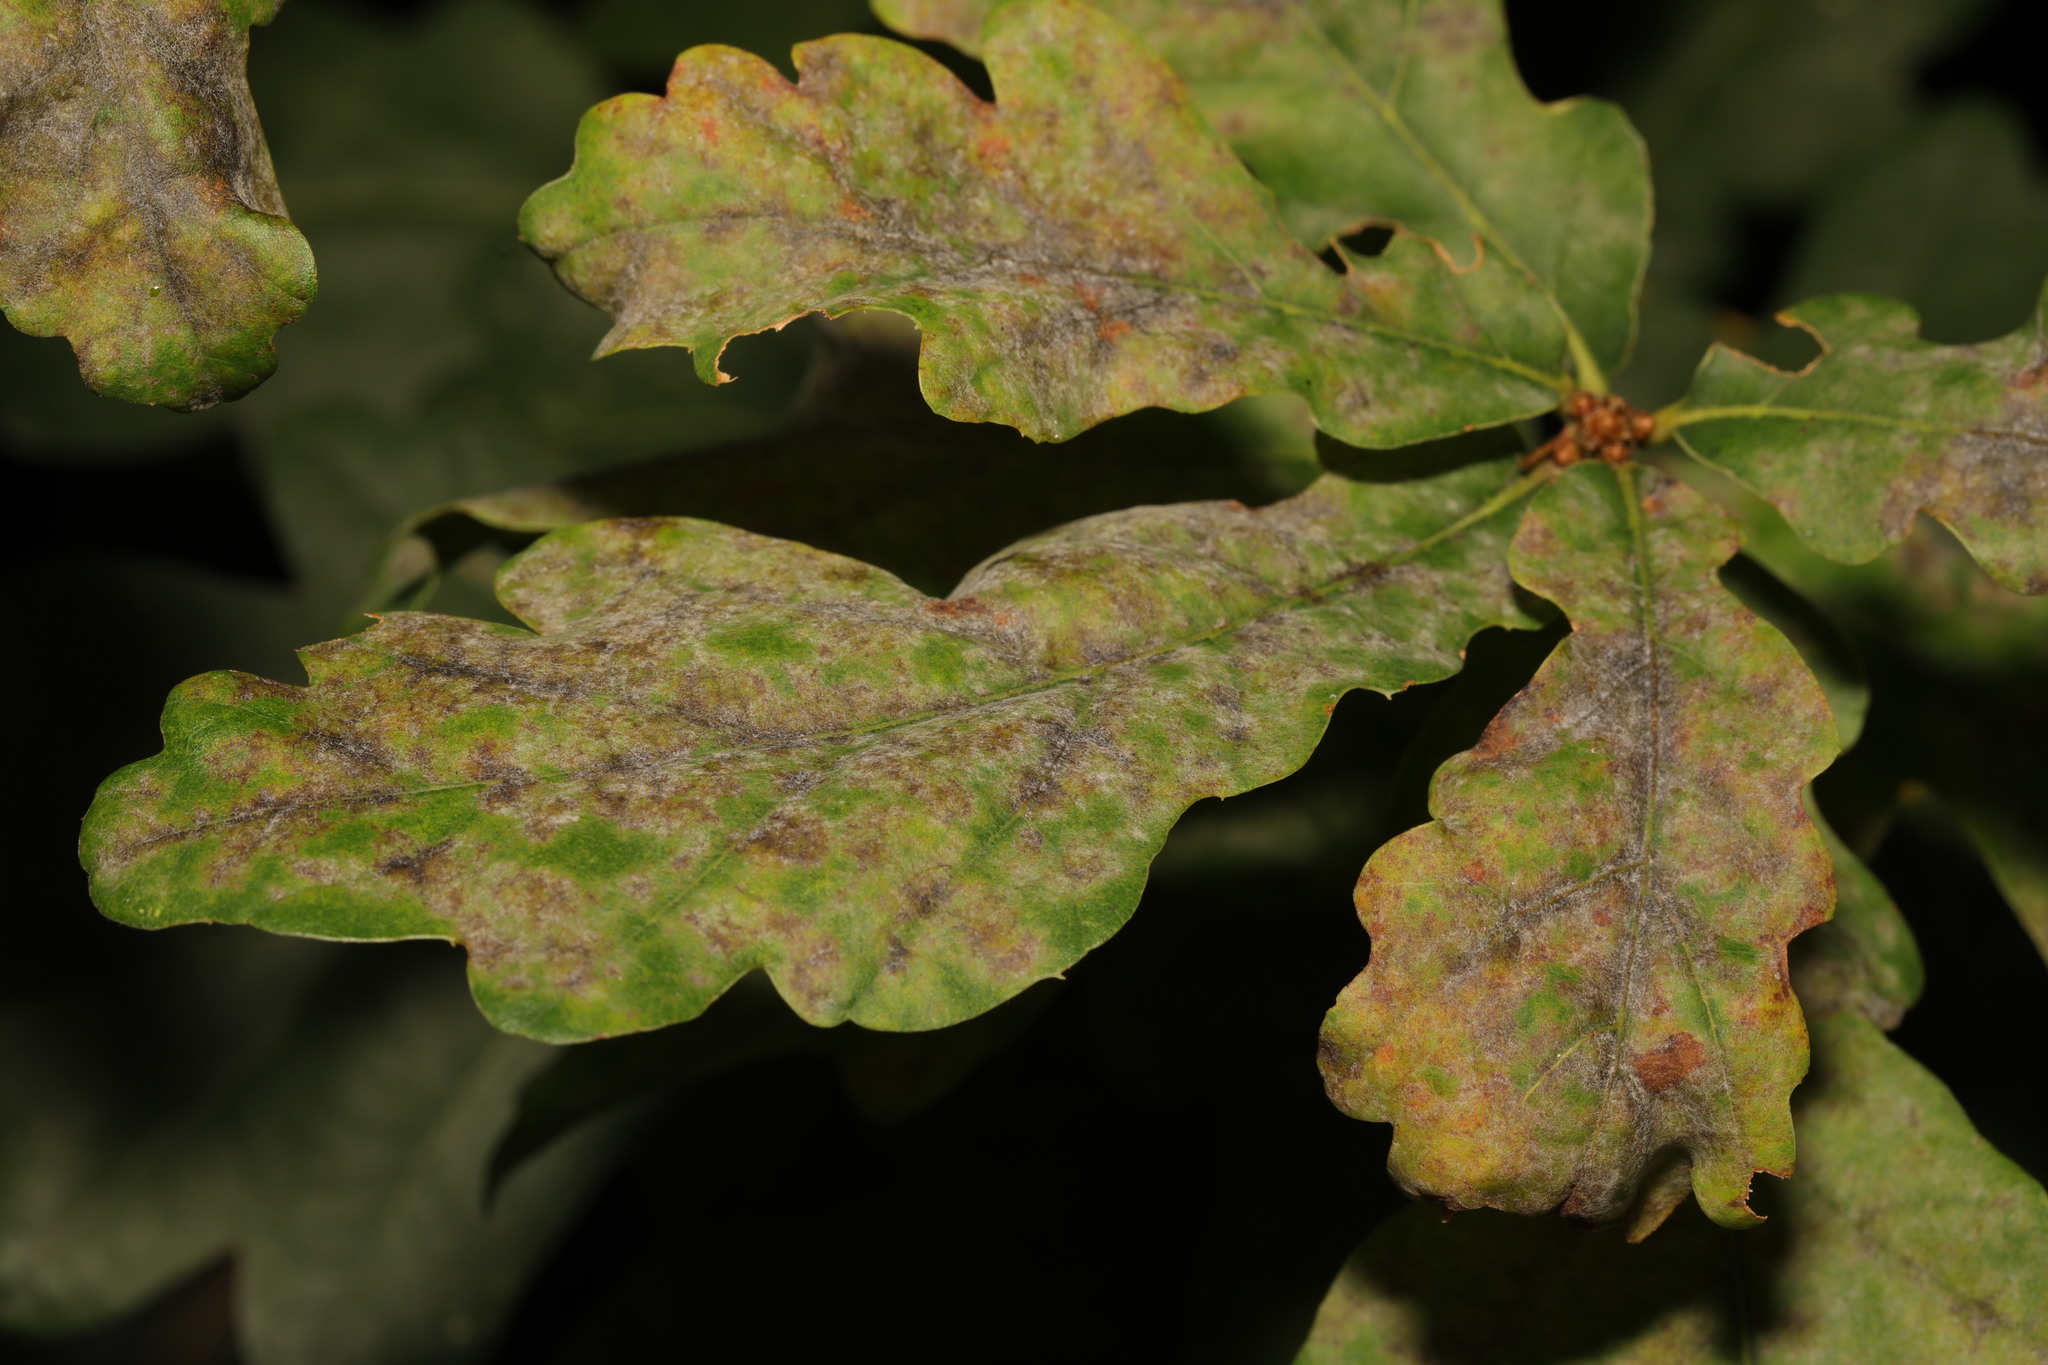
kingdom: Fungi
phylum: Ascomycota
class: Leotiomycetes
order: Helotiales
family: Erysiphaceae
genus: Erysiphe
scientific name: Erysiphe alphitoides
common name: Oak mildew
